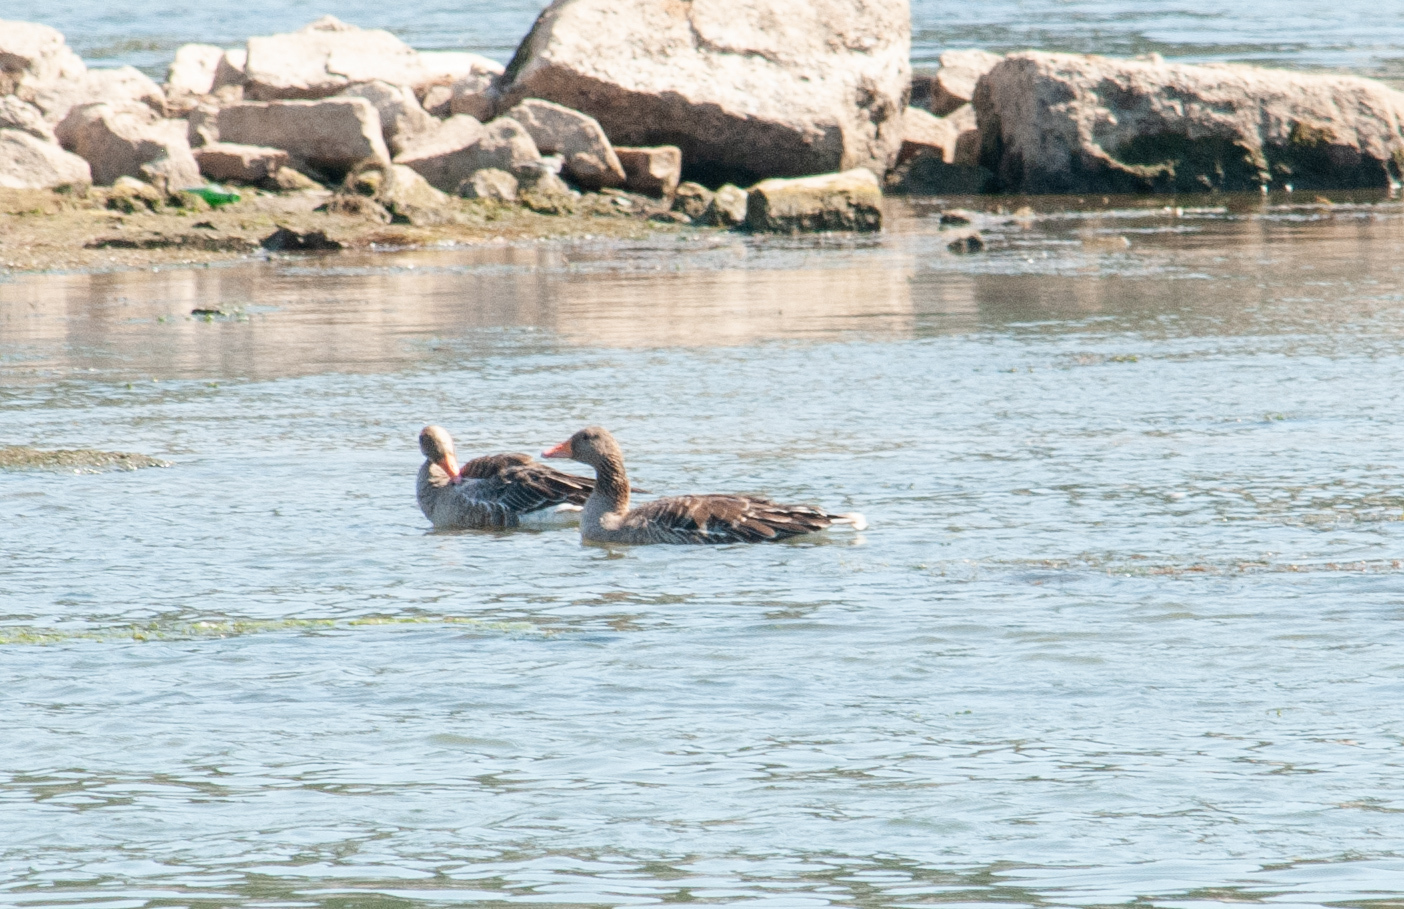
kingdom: Animalia
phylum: Chordata
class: Aves
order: Anseriformes
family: Anatidae
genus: Anser
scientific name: Anser anser
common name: Greylag goose
